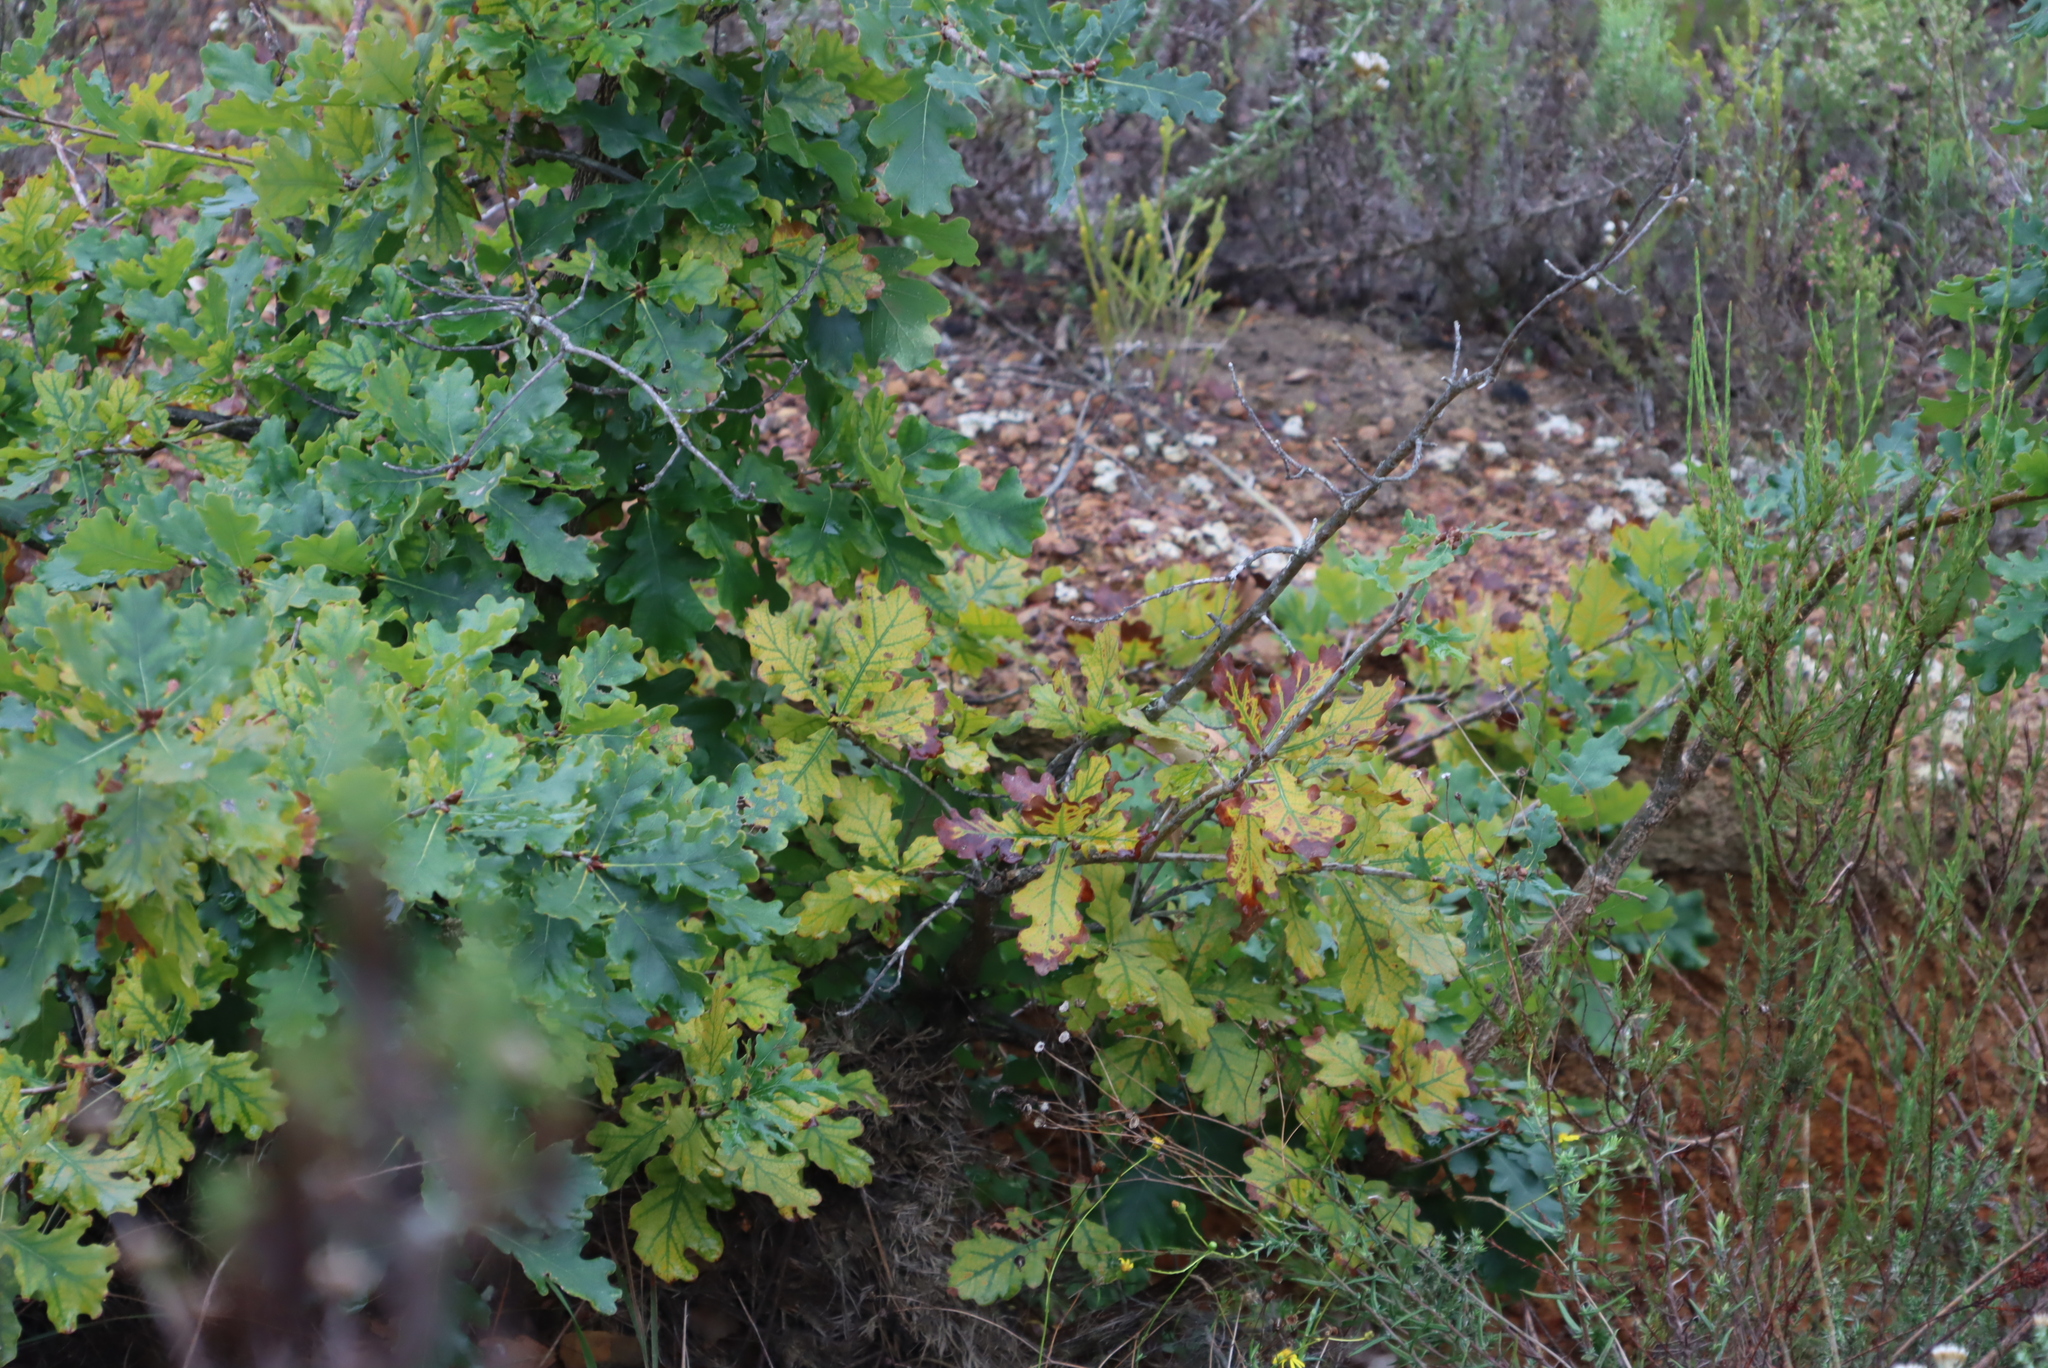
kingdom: Plantae
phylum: Tracheophyta
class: Magnoliopsida
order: Fagales
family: Fagaceae
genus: Quercus
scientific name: Quercus robur
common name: Pedunculate oak
